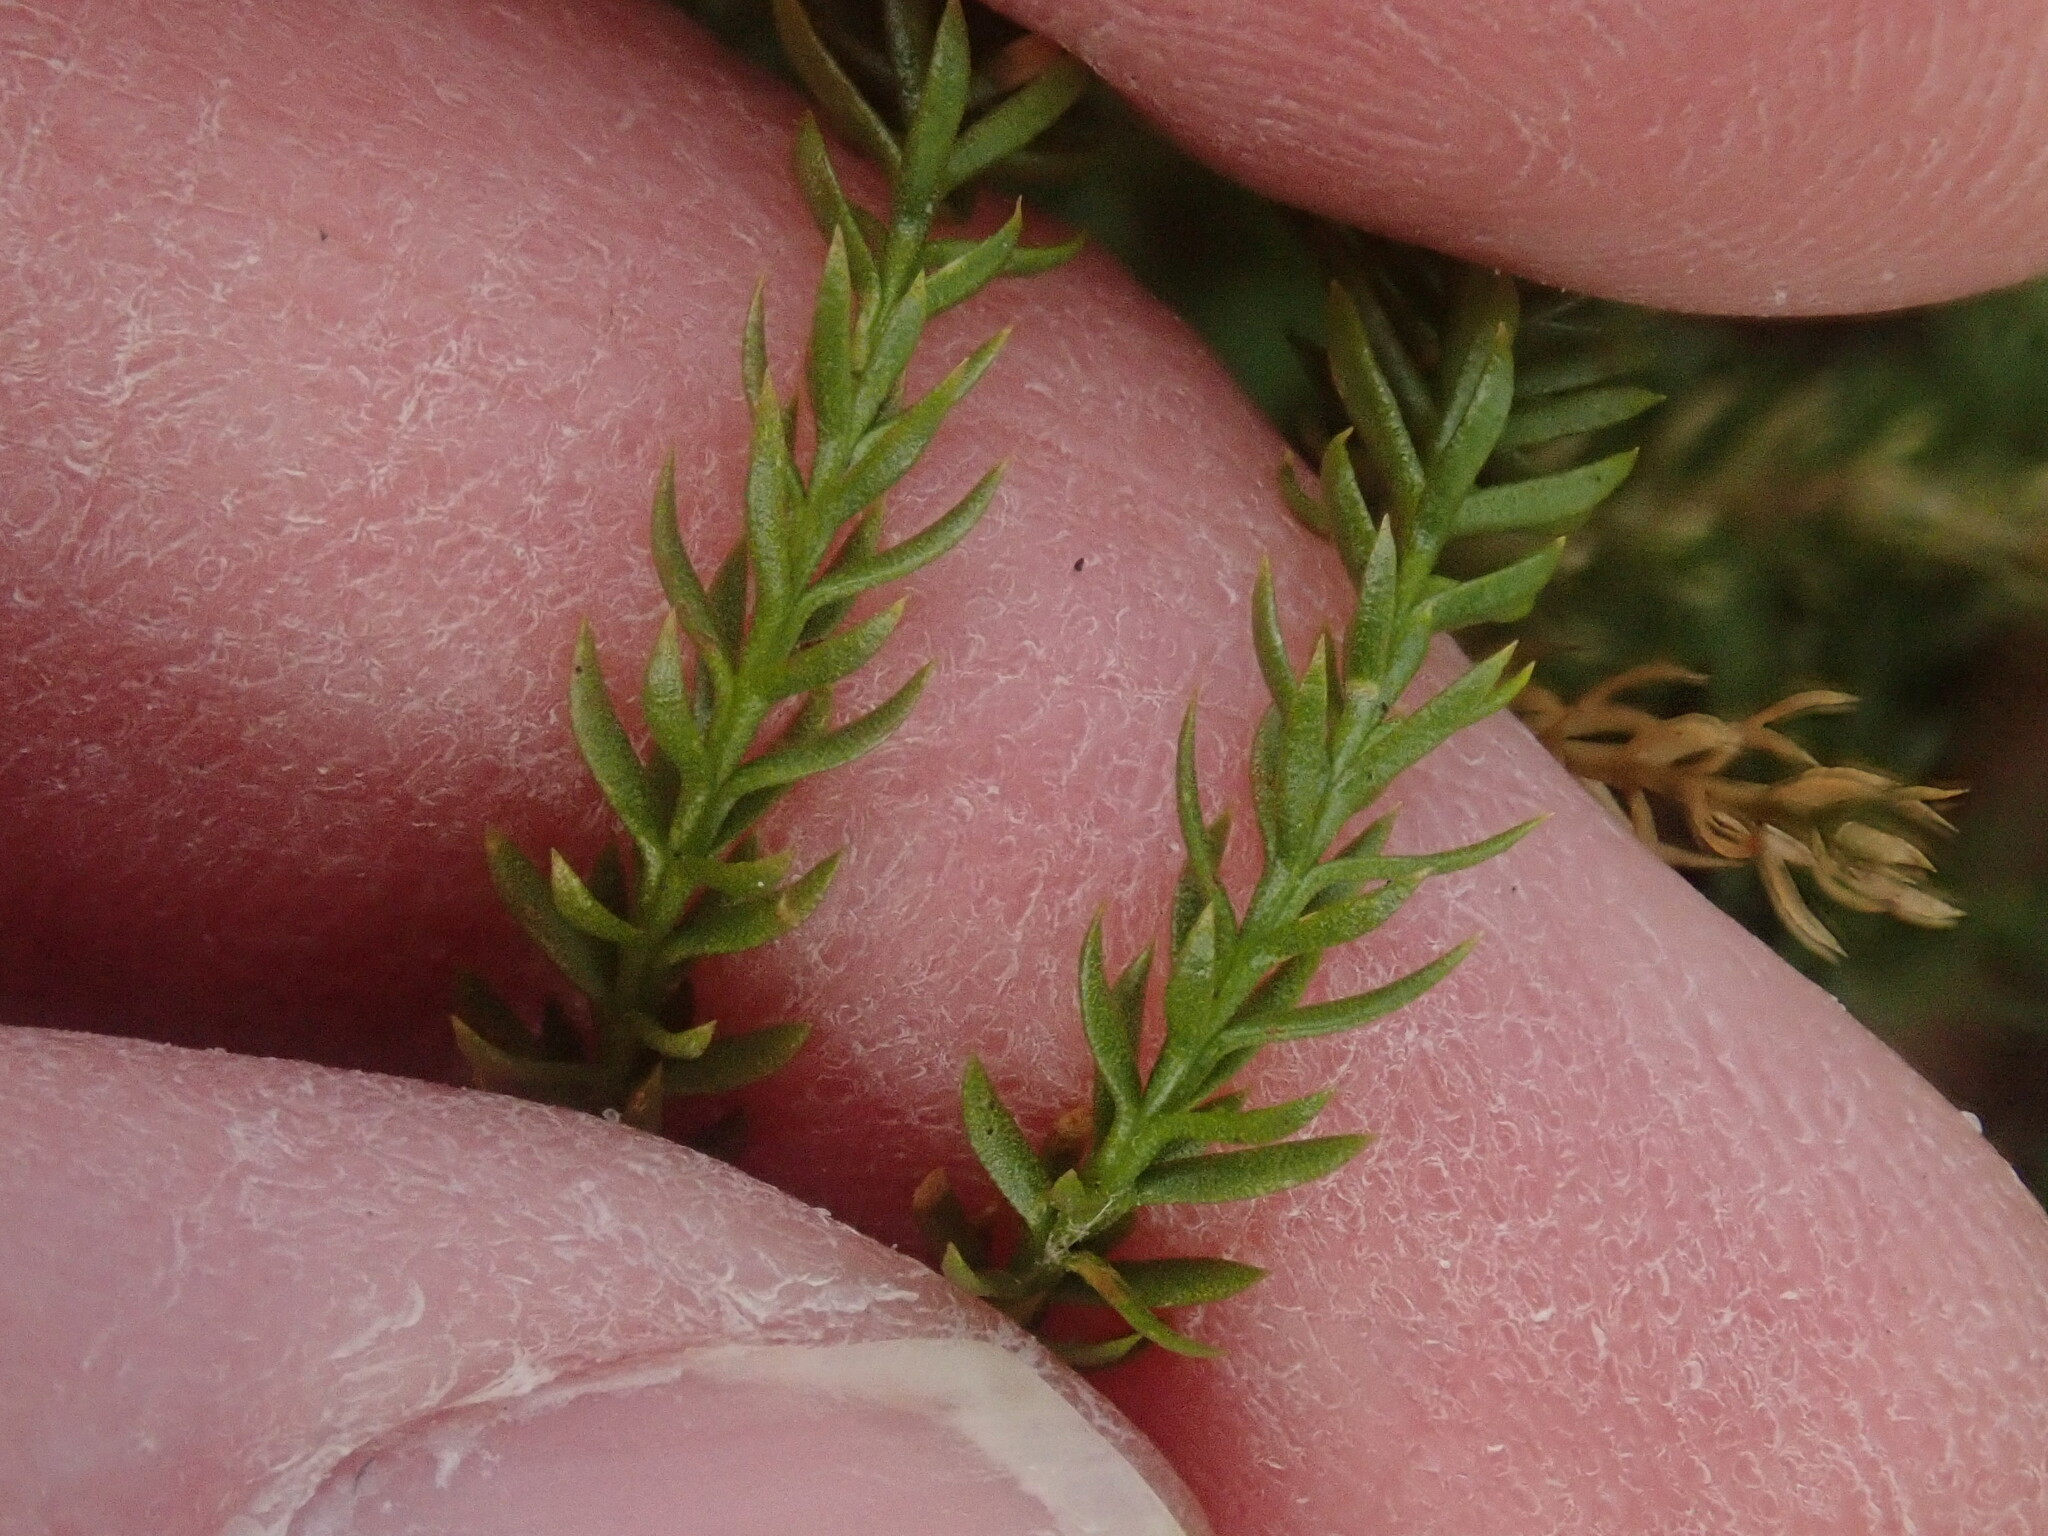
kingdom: Plantae
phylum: Tracheophyta
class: Lycopodiopsida
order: Lycopodiales
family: Lycopodiaceae
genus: Dendrolycopodium
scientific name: Dendrolycopodium hickeyi
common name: Hickey's clubmoss
